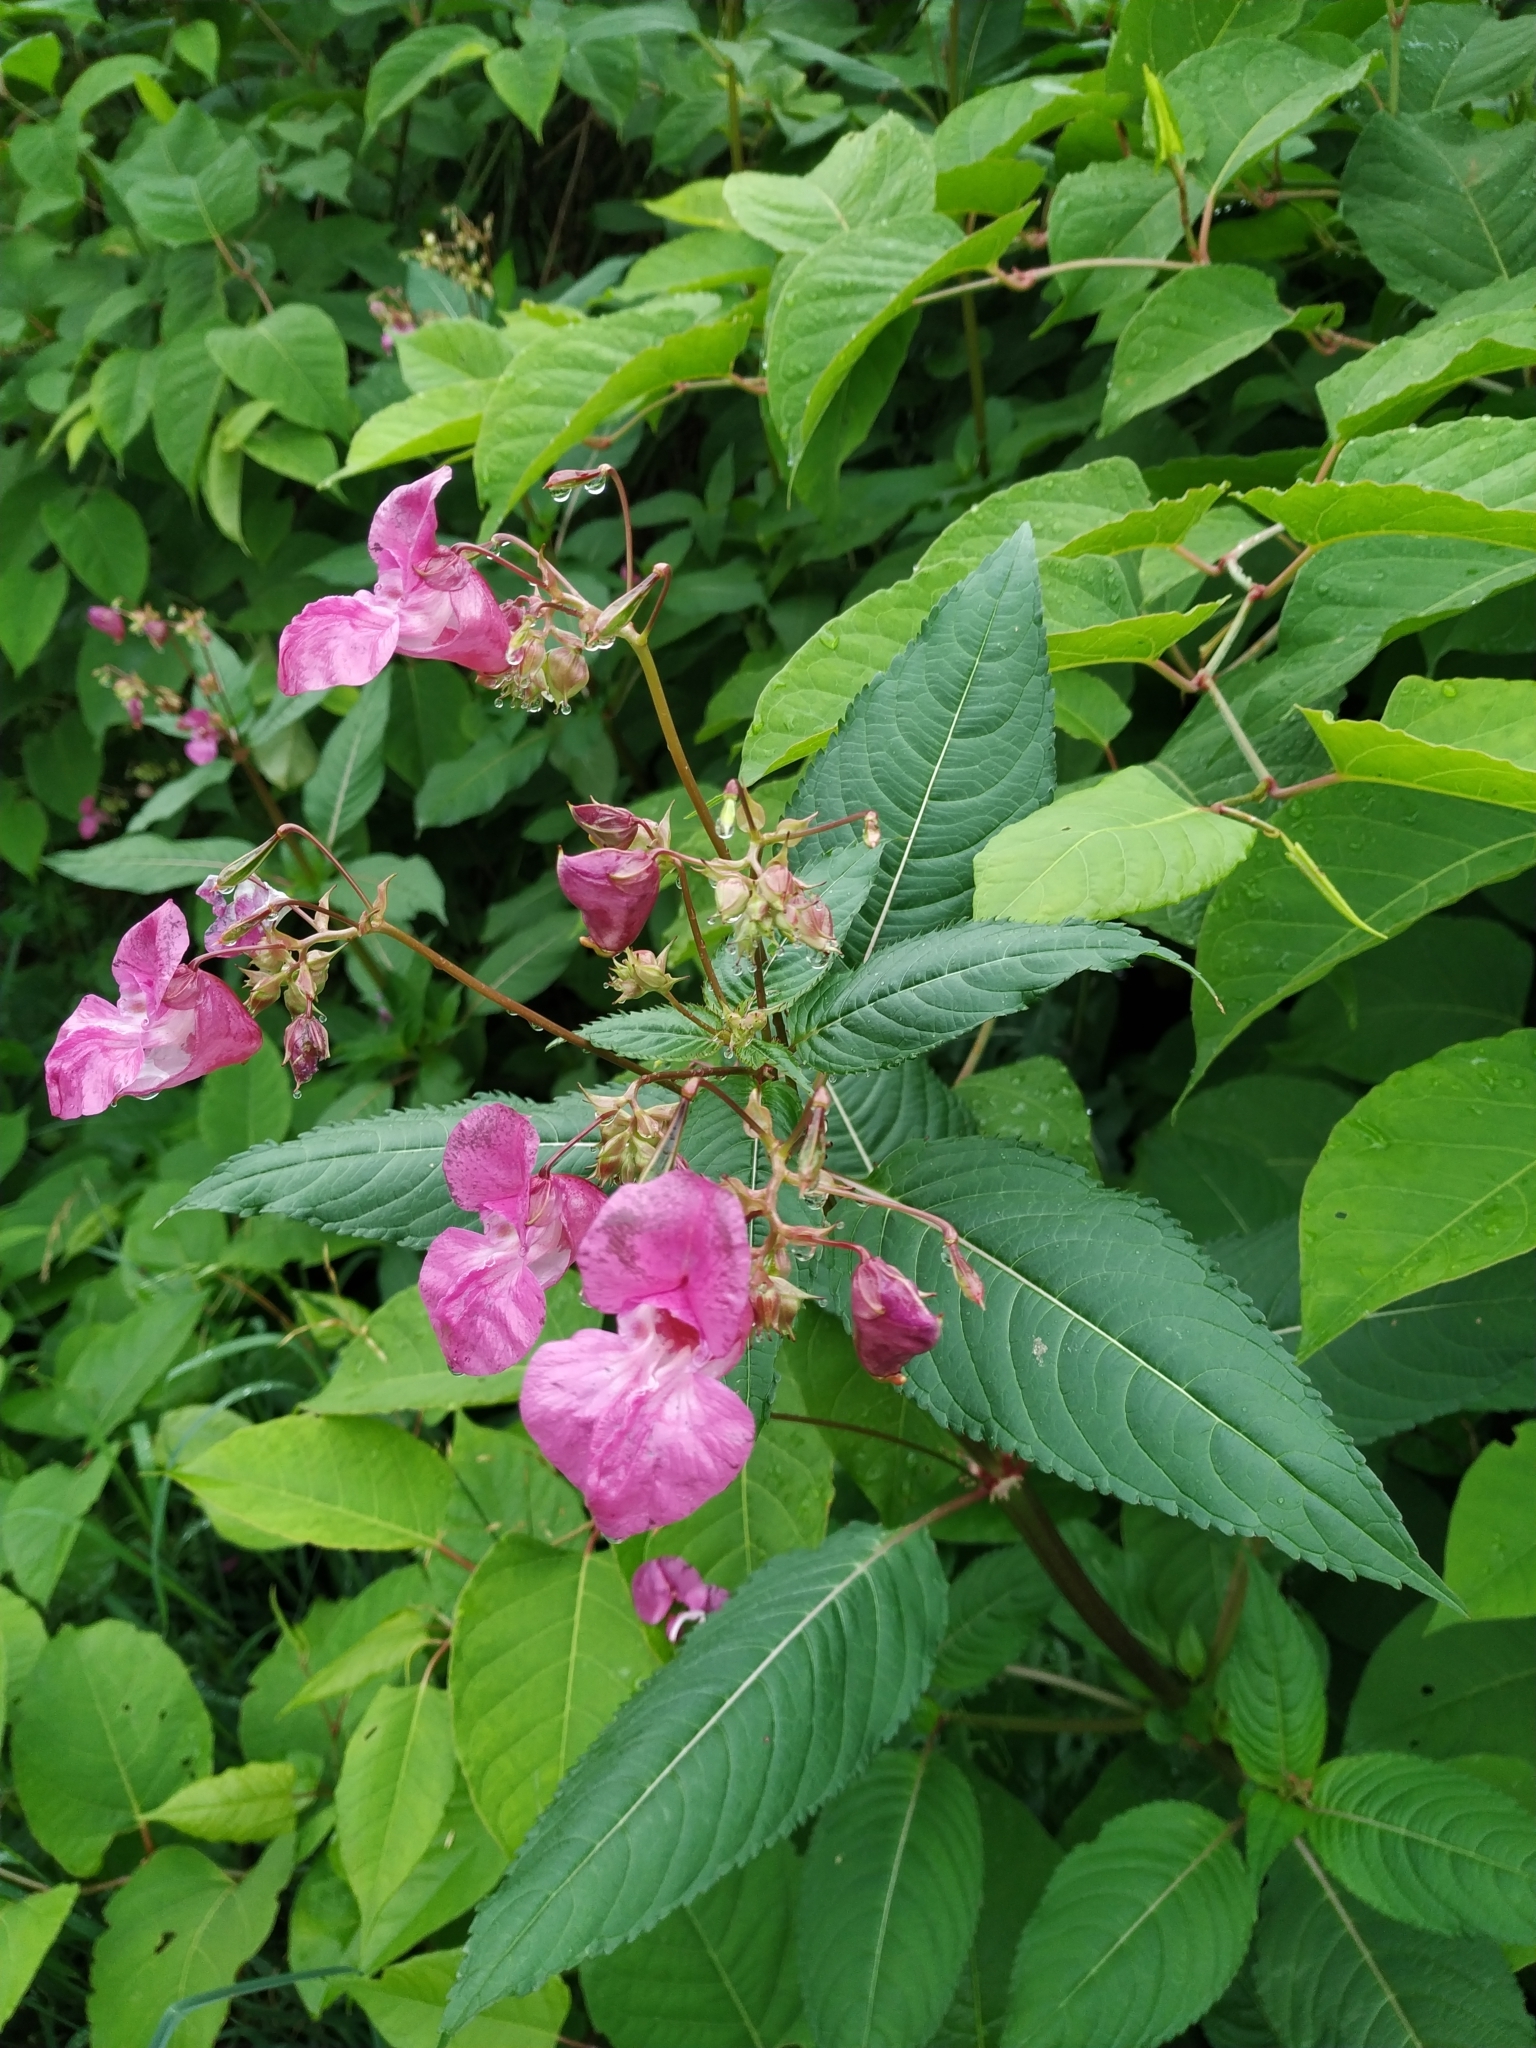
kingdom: Plantae
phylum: Tracheophyta
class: Magnoliopsida
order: Ericales
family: Balsaminaceae
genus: Impatiens
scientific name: Impatiens glandulifera
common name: Himalayan balsam
